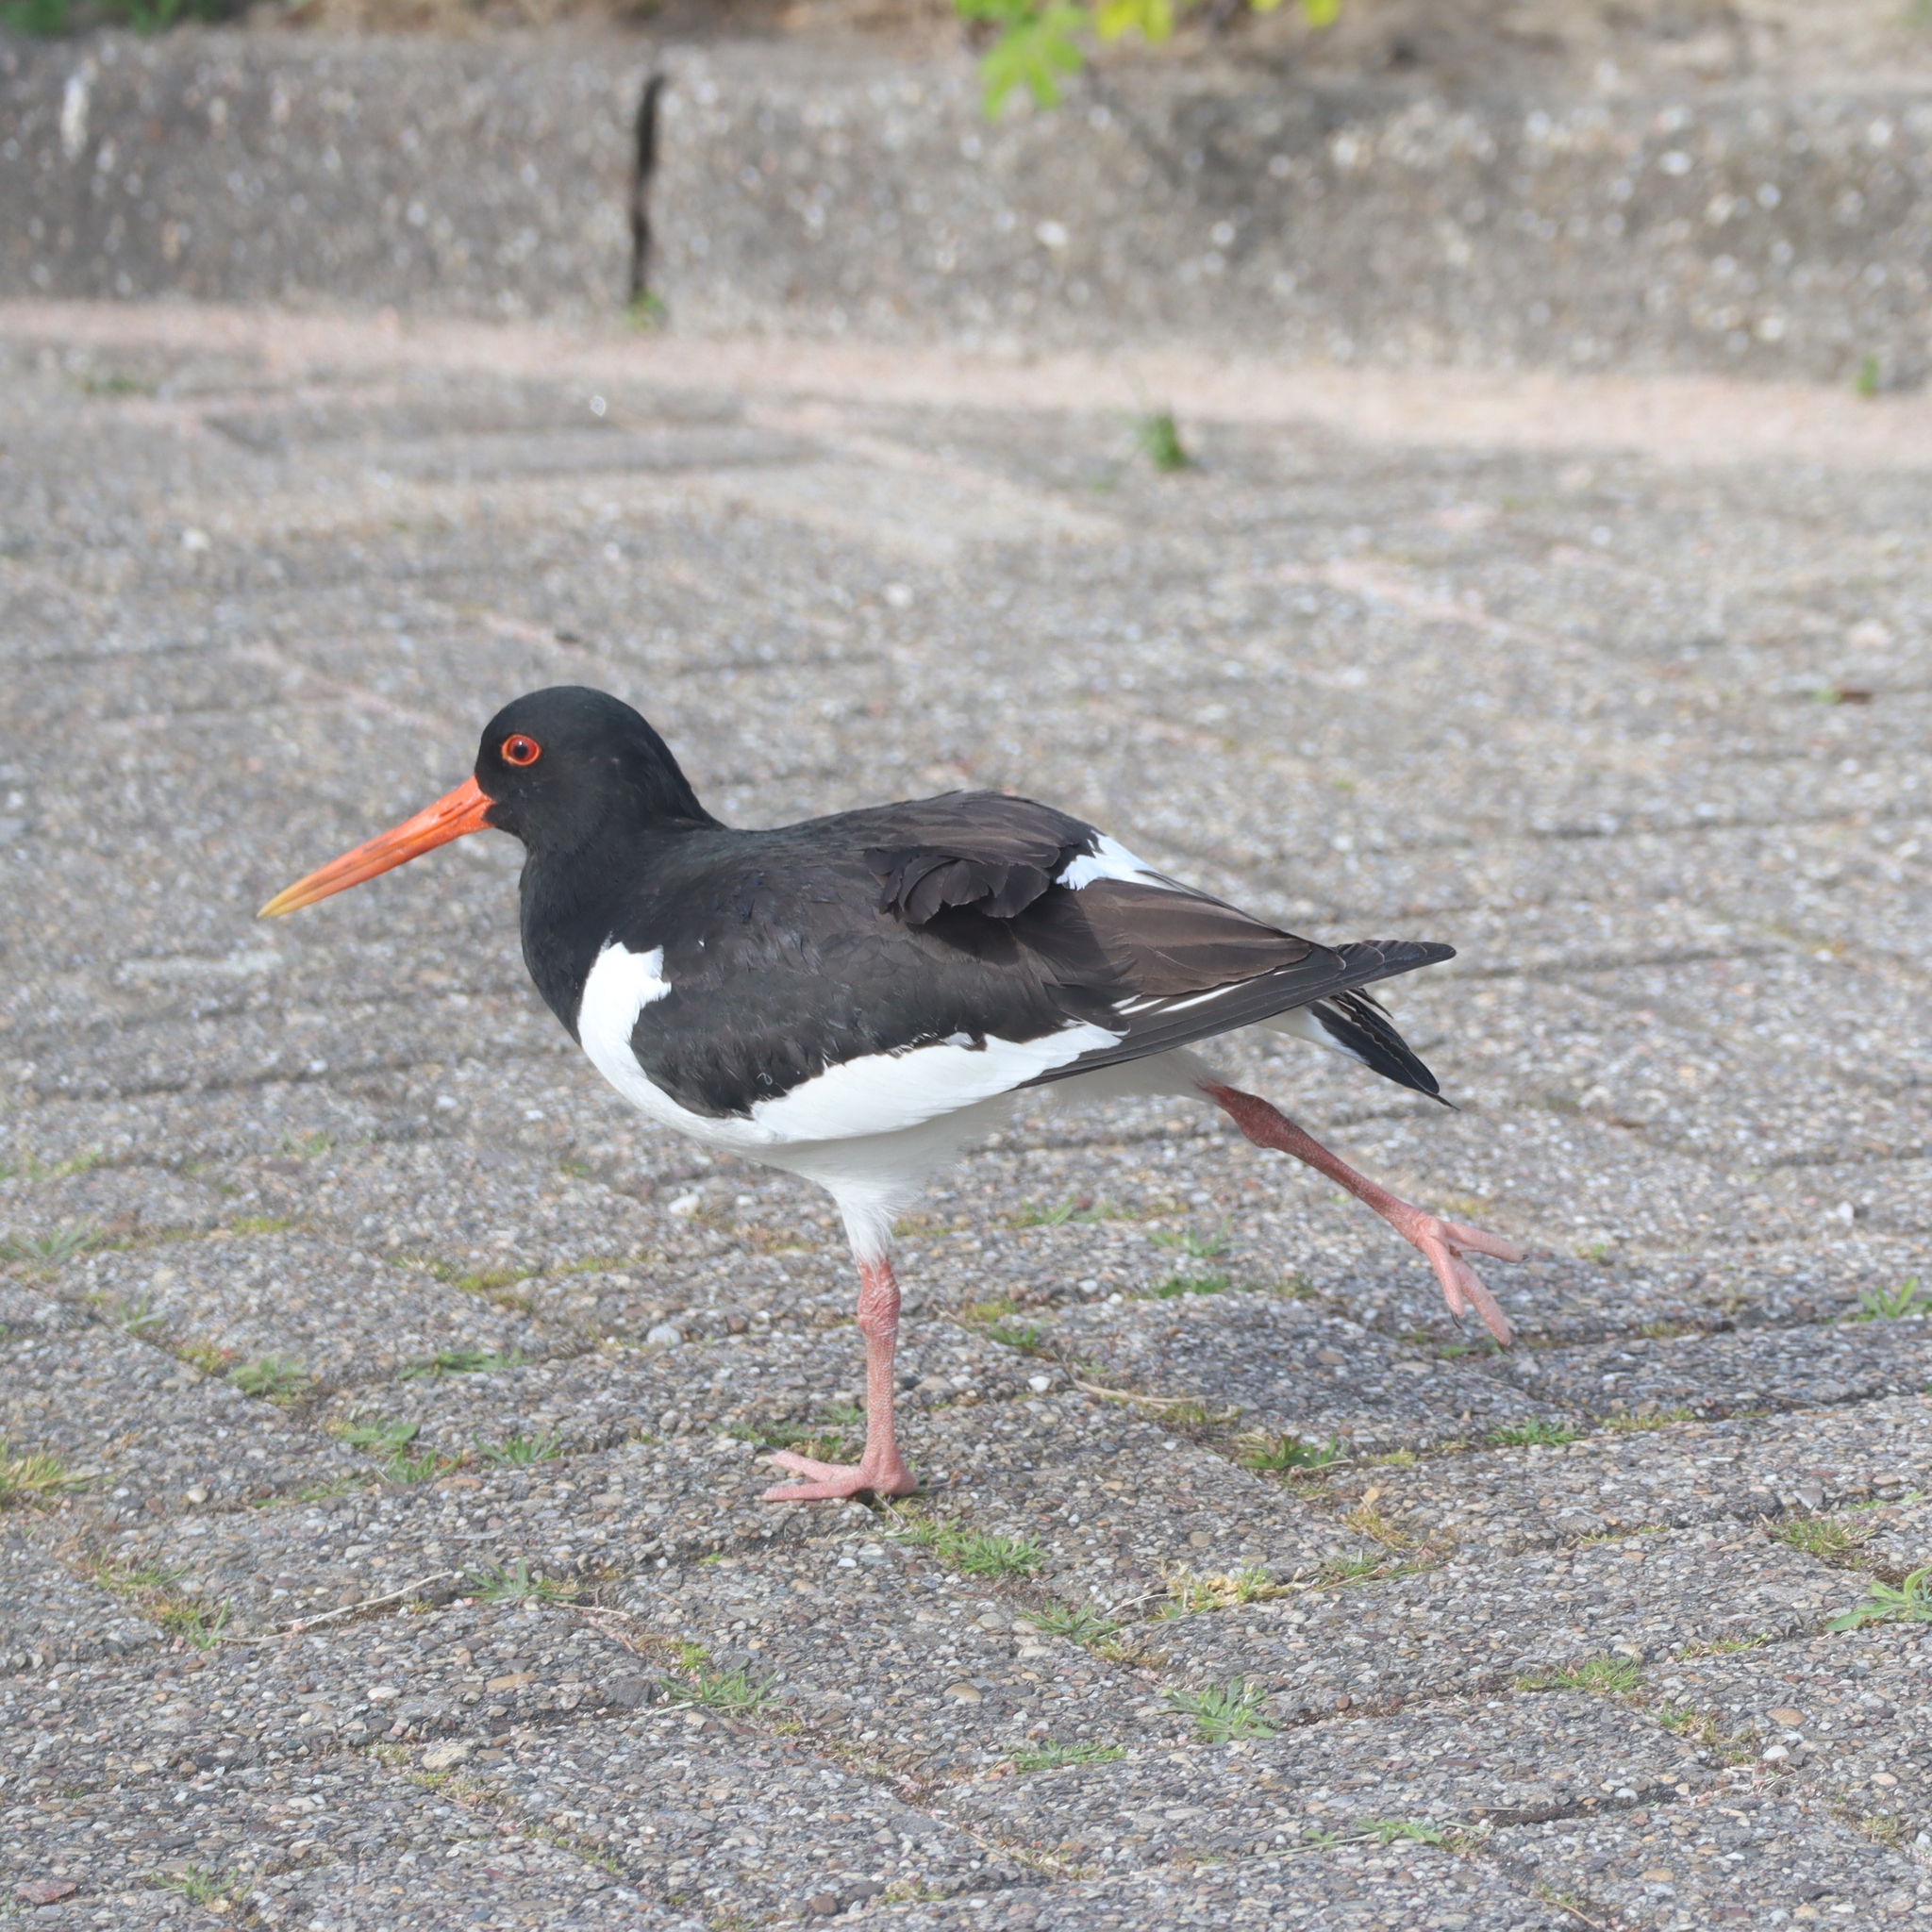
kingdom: Animalia
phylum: Chordata
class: Aves
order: Charadriiformes
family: Haematopodidae
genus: Haematopus
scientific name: Haematopus ostralegus
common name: Eurasian oystercatcher
